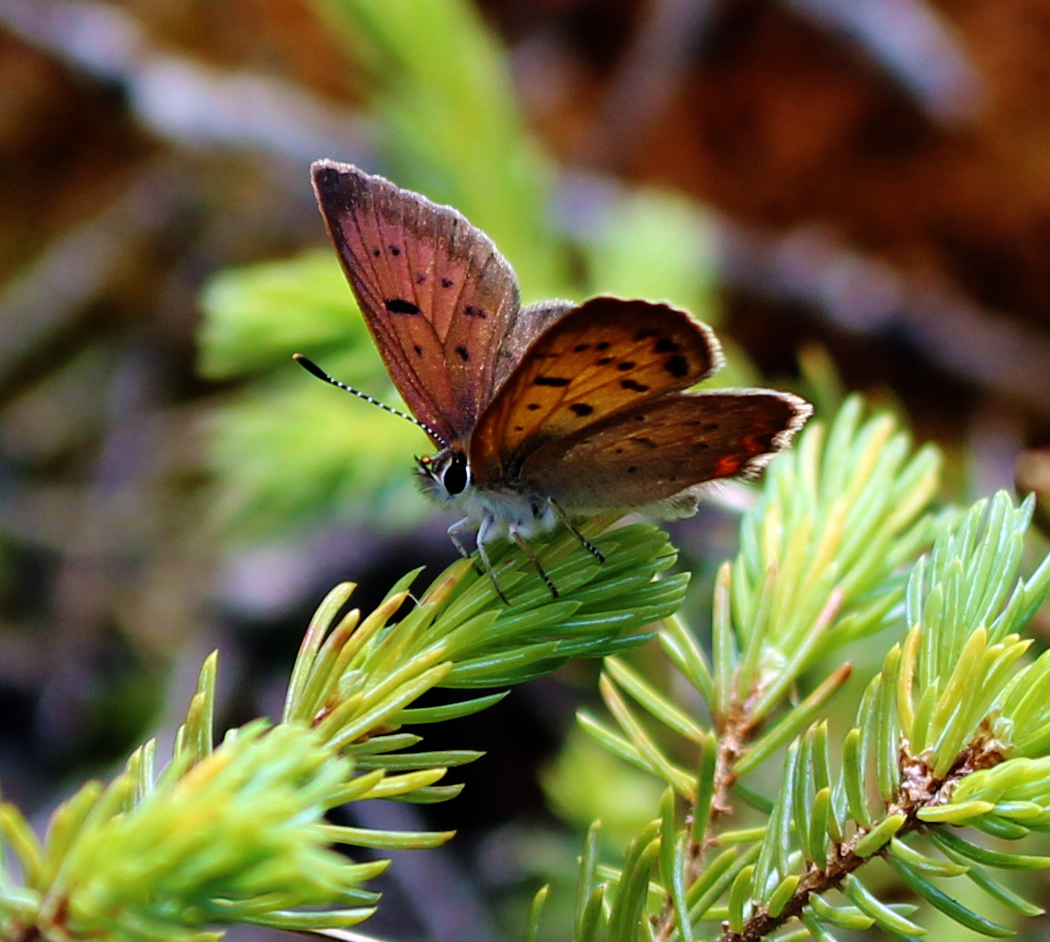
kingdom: Animalia
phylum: Arthropoda
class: Insecta
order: Lepidoptera
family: Lycaenidae
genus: Tharsalea
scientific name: Tharsalea epixanthe
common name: Bog copper
